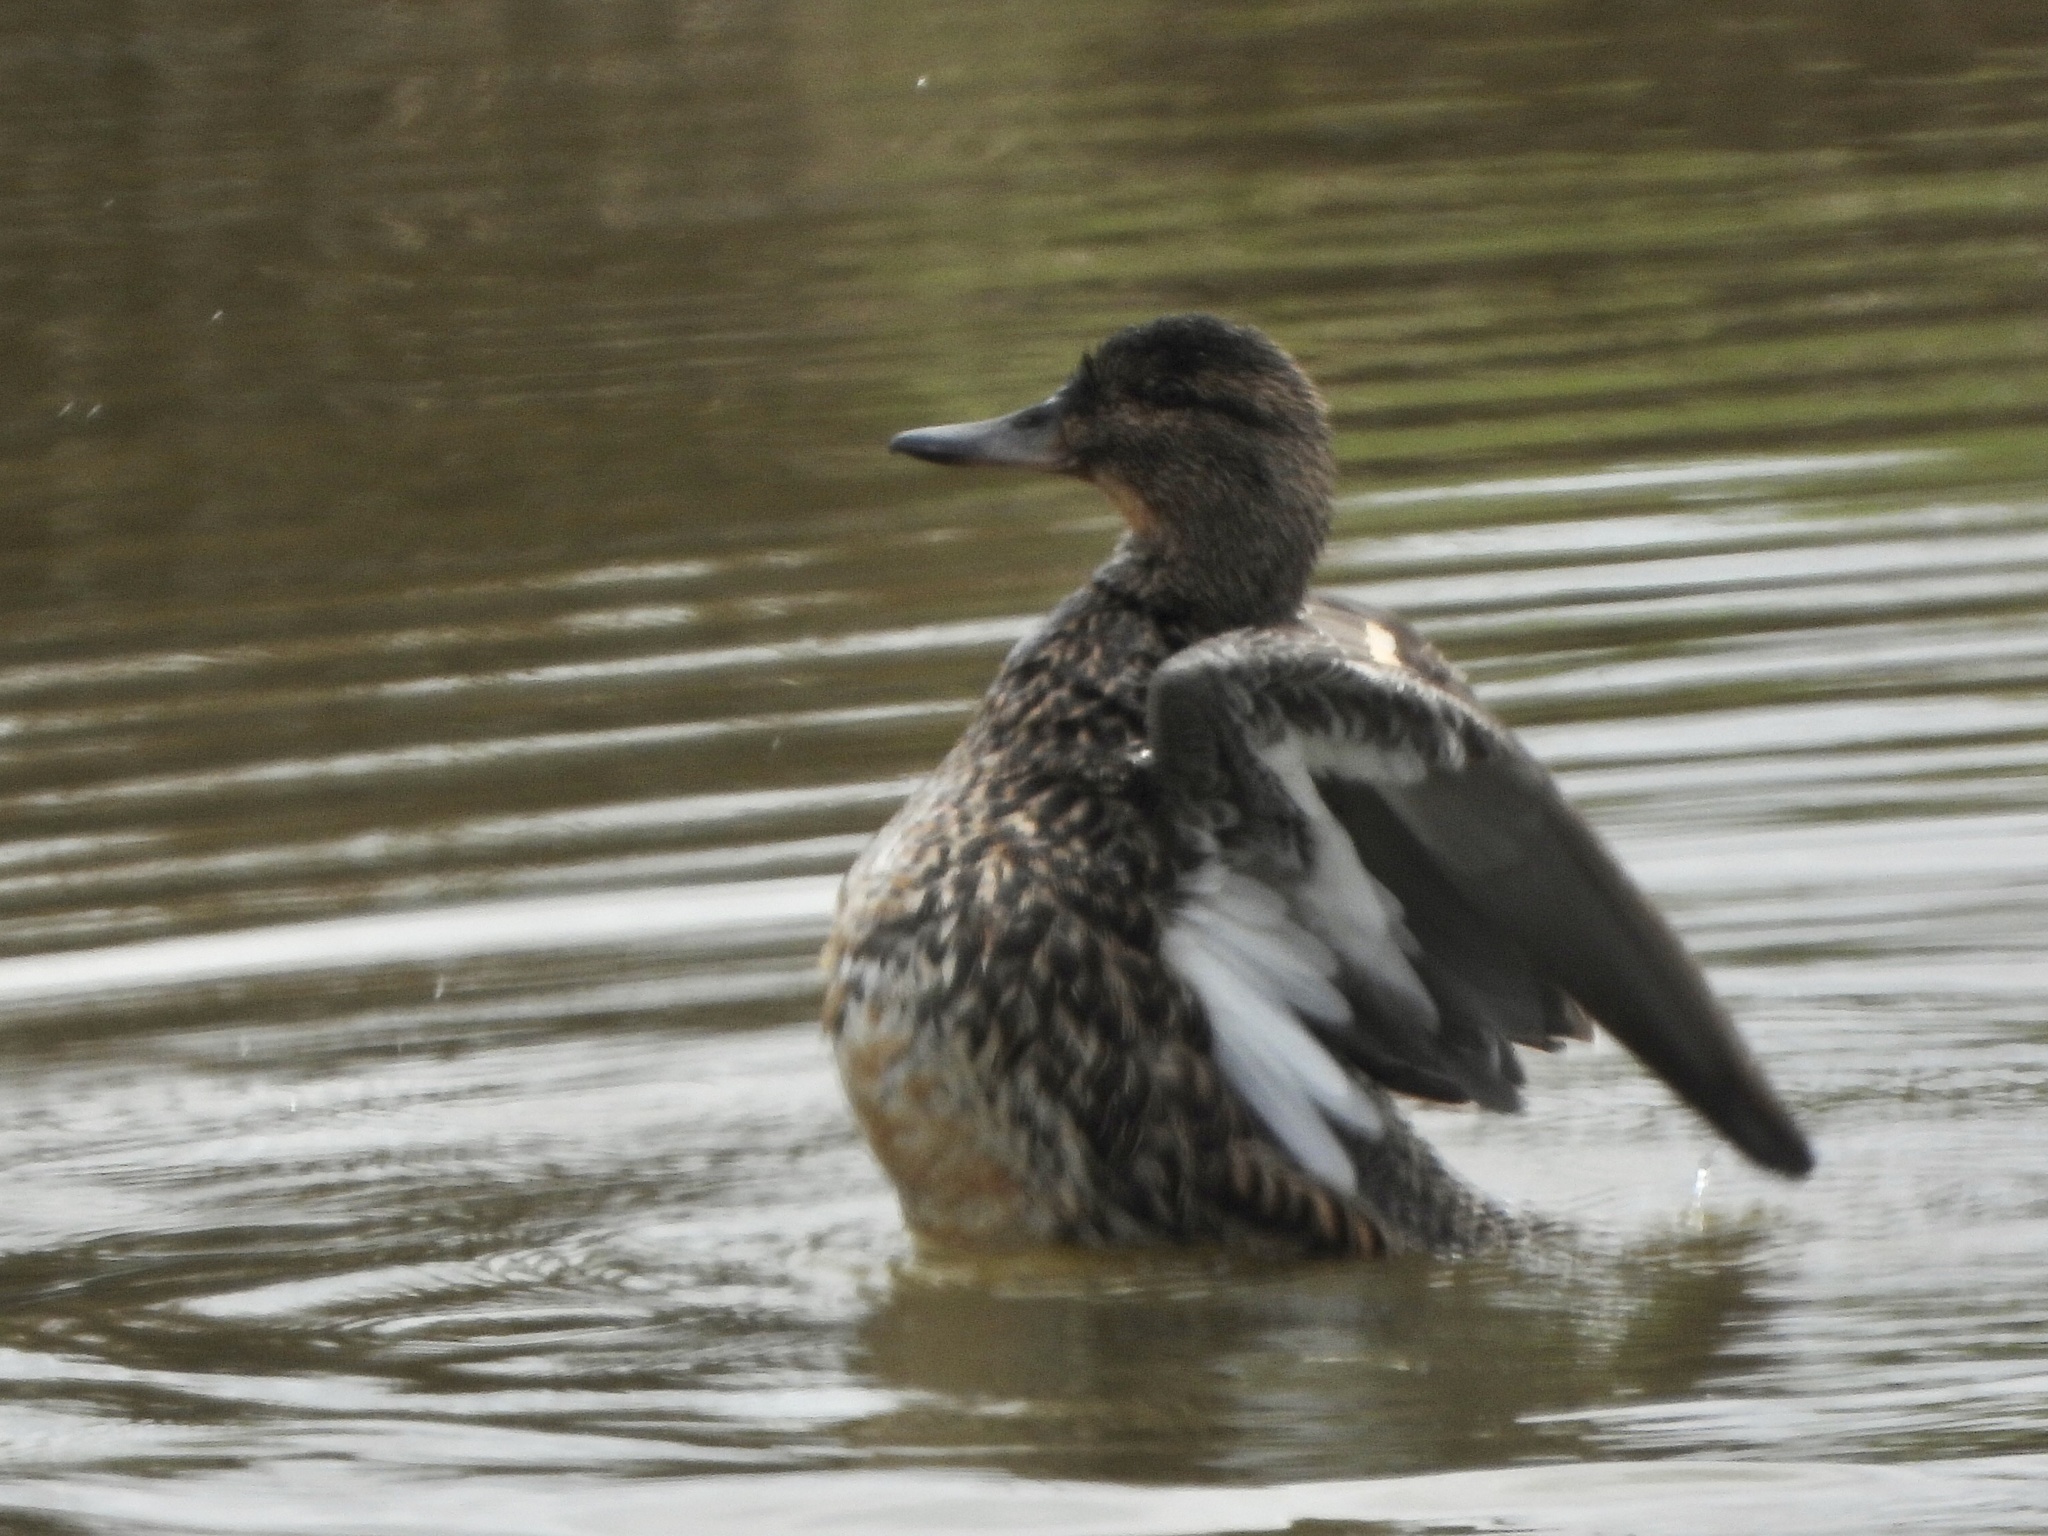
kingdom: Animalia
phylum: Chordata
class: Aves
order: Anseriformes
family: Anatidae
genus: Anas
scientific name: Anas crecca
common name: Eurasian teal
